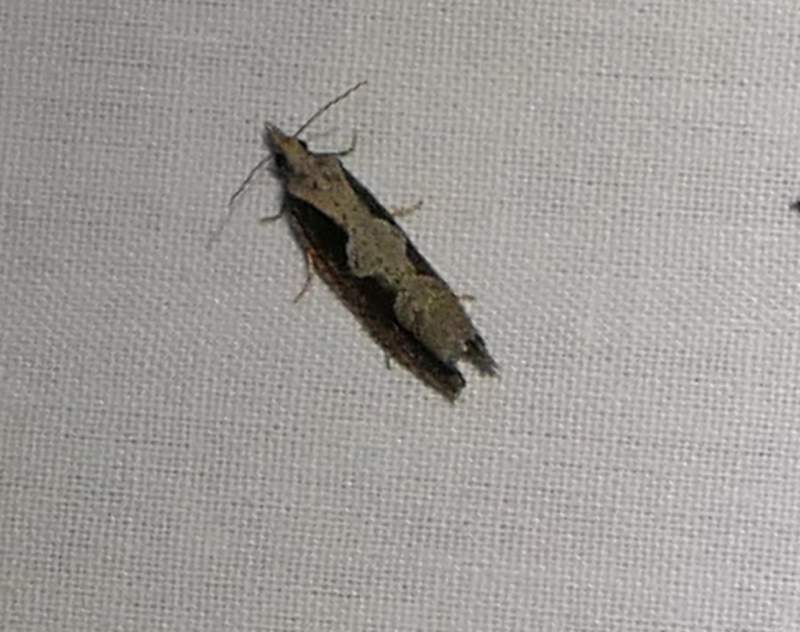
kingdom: Animalia
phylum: Arthropoda
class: Insecta
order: Lepidoptera
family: Tortricidae
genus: Epinotia
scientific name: Epinotia lindana
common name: Diamondback epinotia moth
